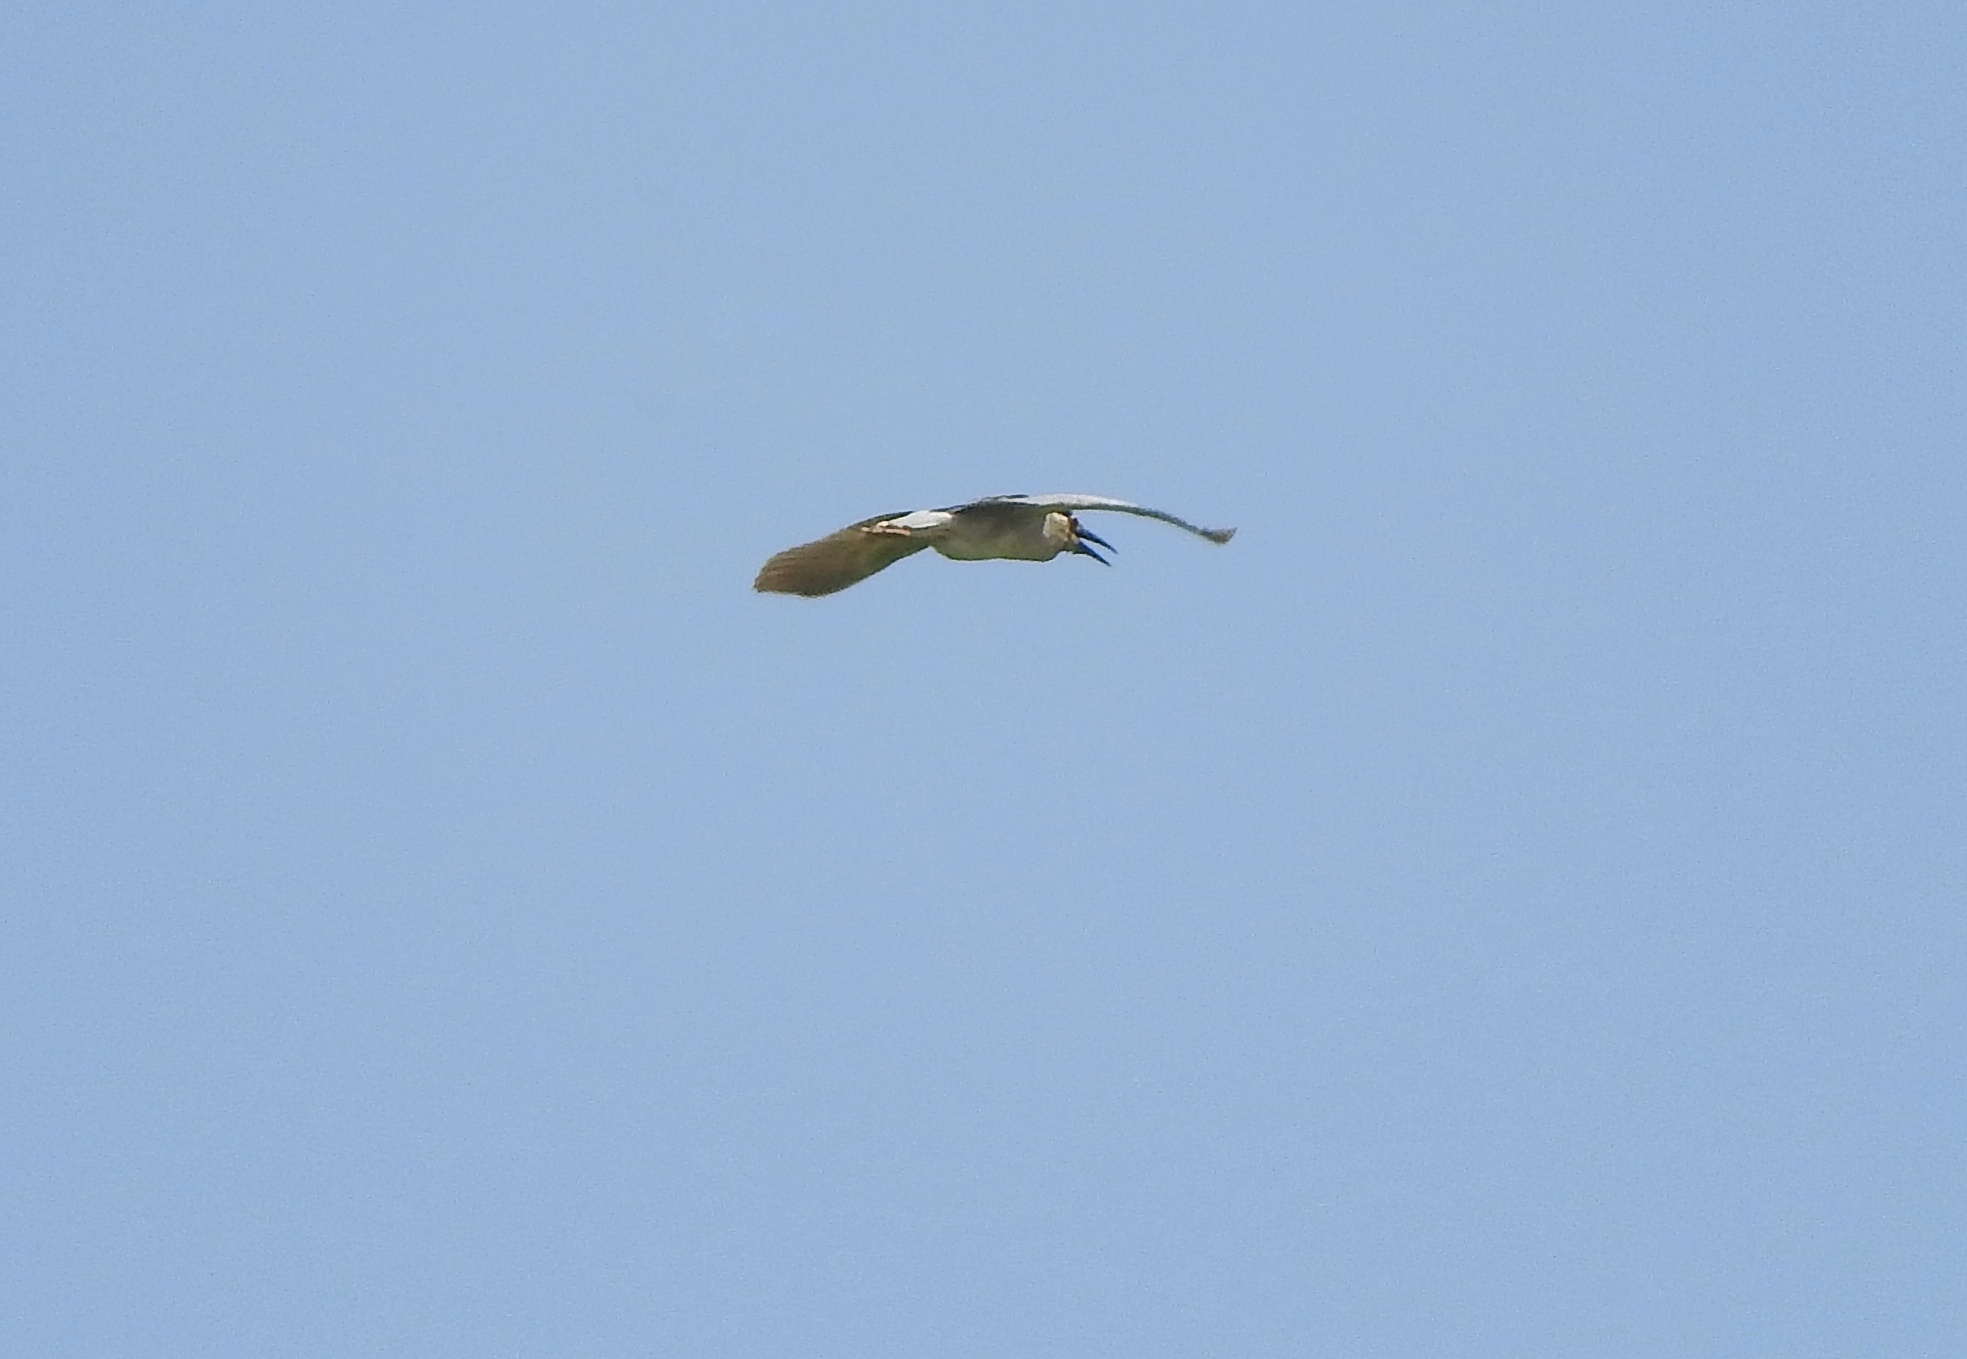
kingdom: Animalia
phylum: Chordata
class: Aves
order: Pelecaniformes
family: Ardeidae
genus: Nycticorax
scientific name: Nycticorax nycticorax
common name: Black-crowned night heron
